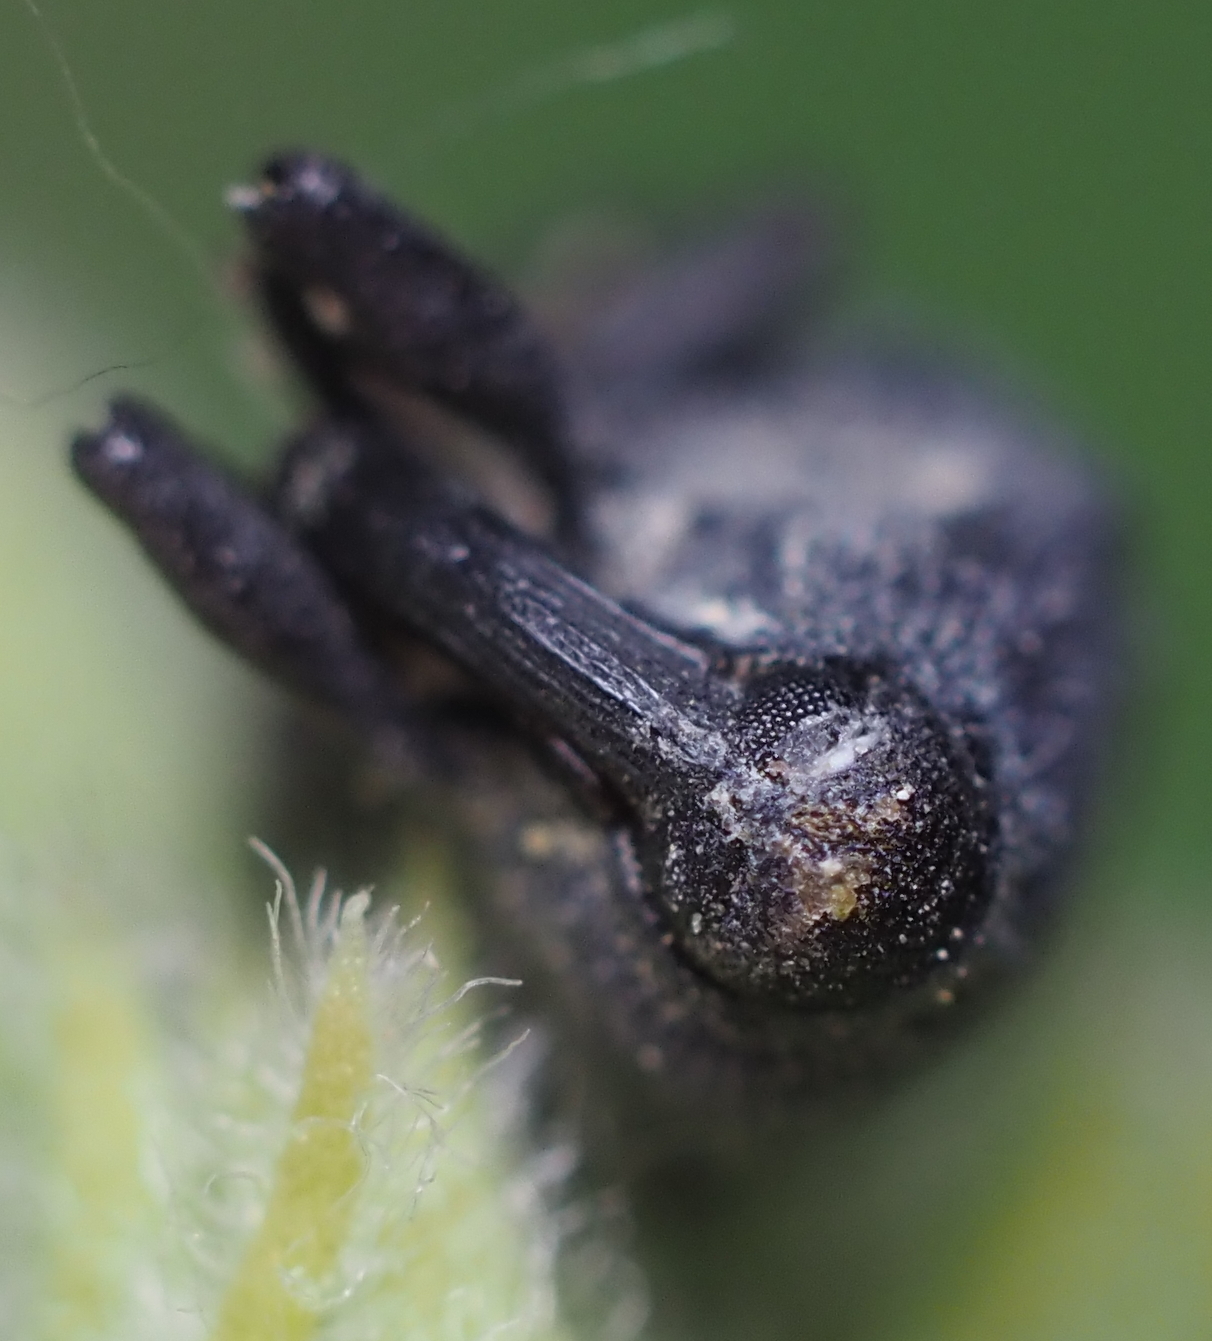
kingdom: Animalia
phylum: Arthropoda
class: Insecta
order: Coleoptera
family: Curculionidae
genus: Rhyssomatus
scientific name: Rhyssomatus lineaticollis
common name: Milkweed stem weevil
